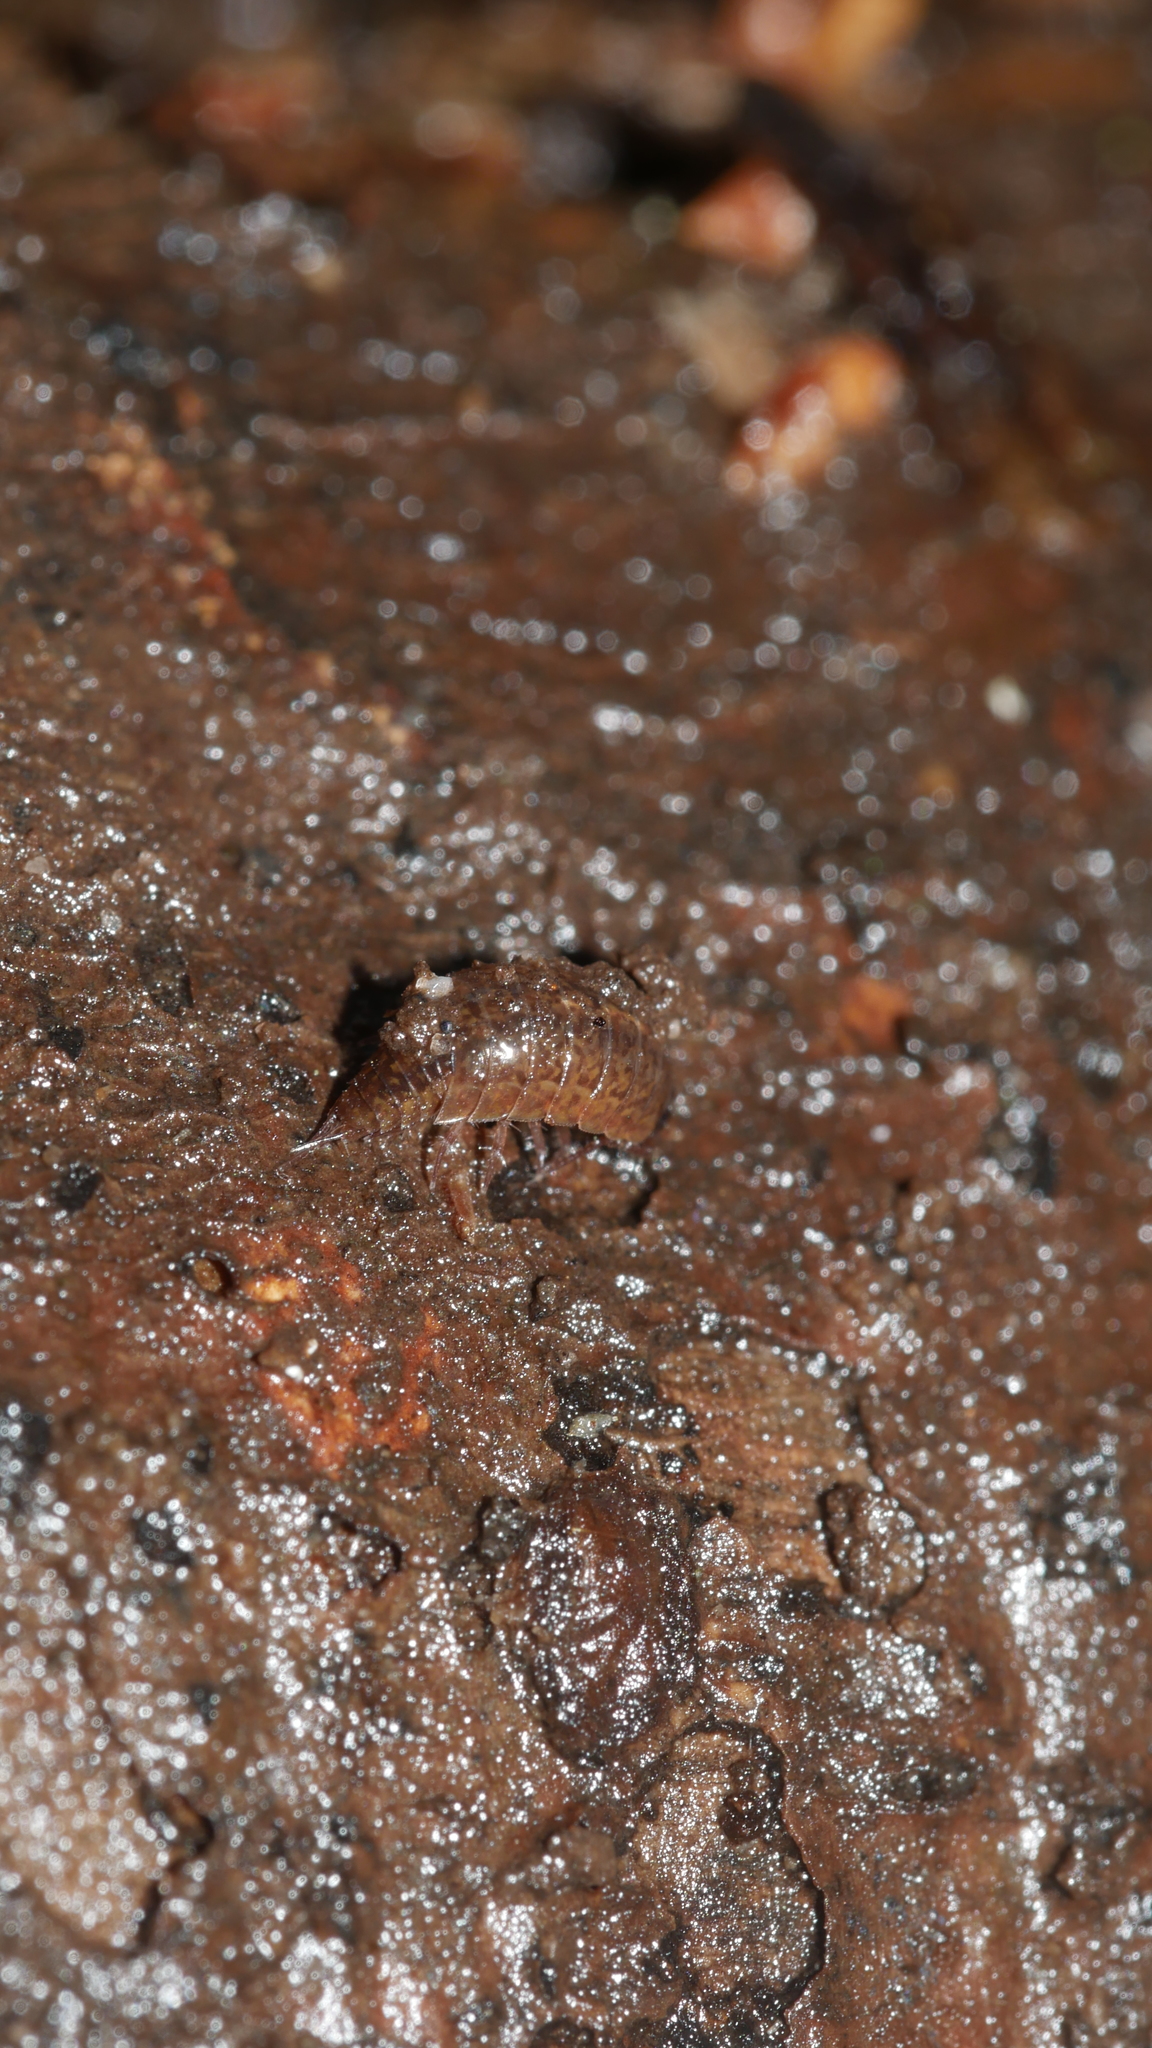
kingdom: Animalia
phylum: Arthropoda
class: Malacostraca
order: Isopoda
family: Ligiidae
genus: Ligidium
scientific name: Ligidium elrodii
